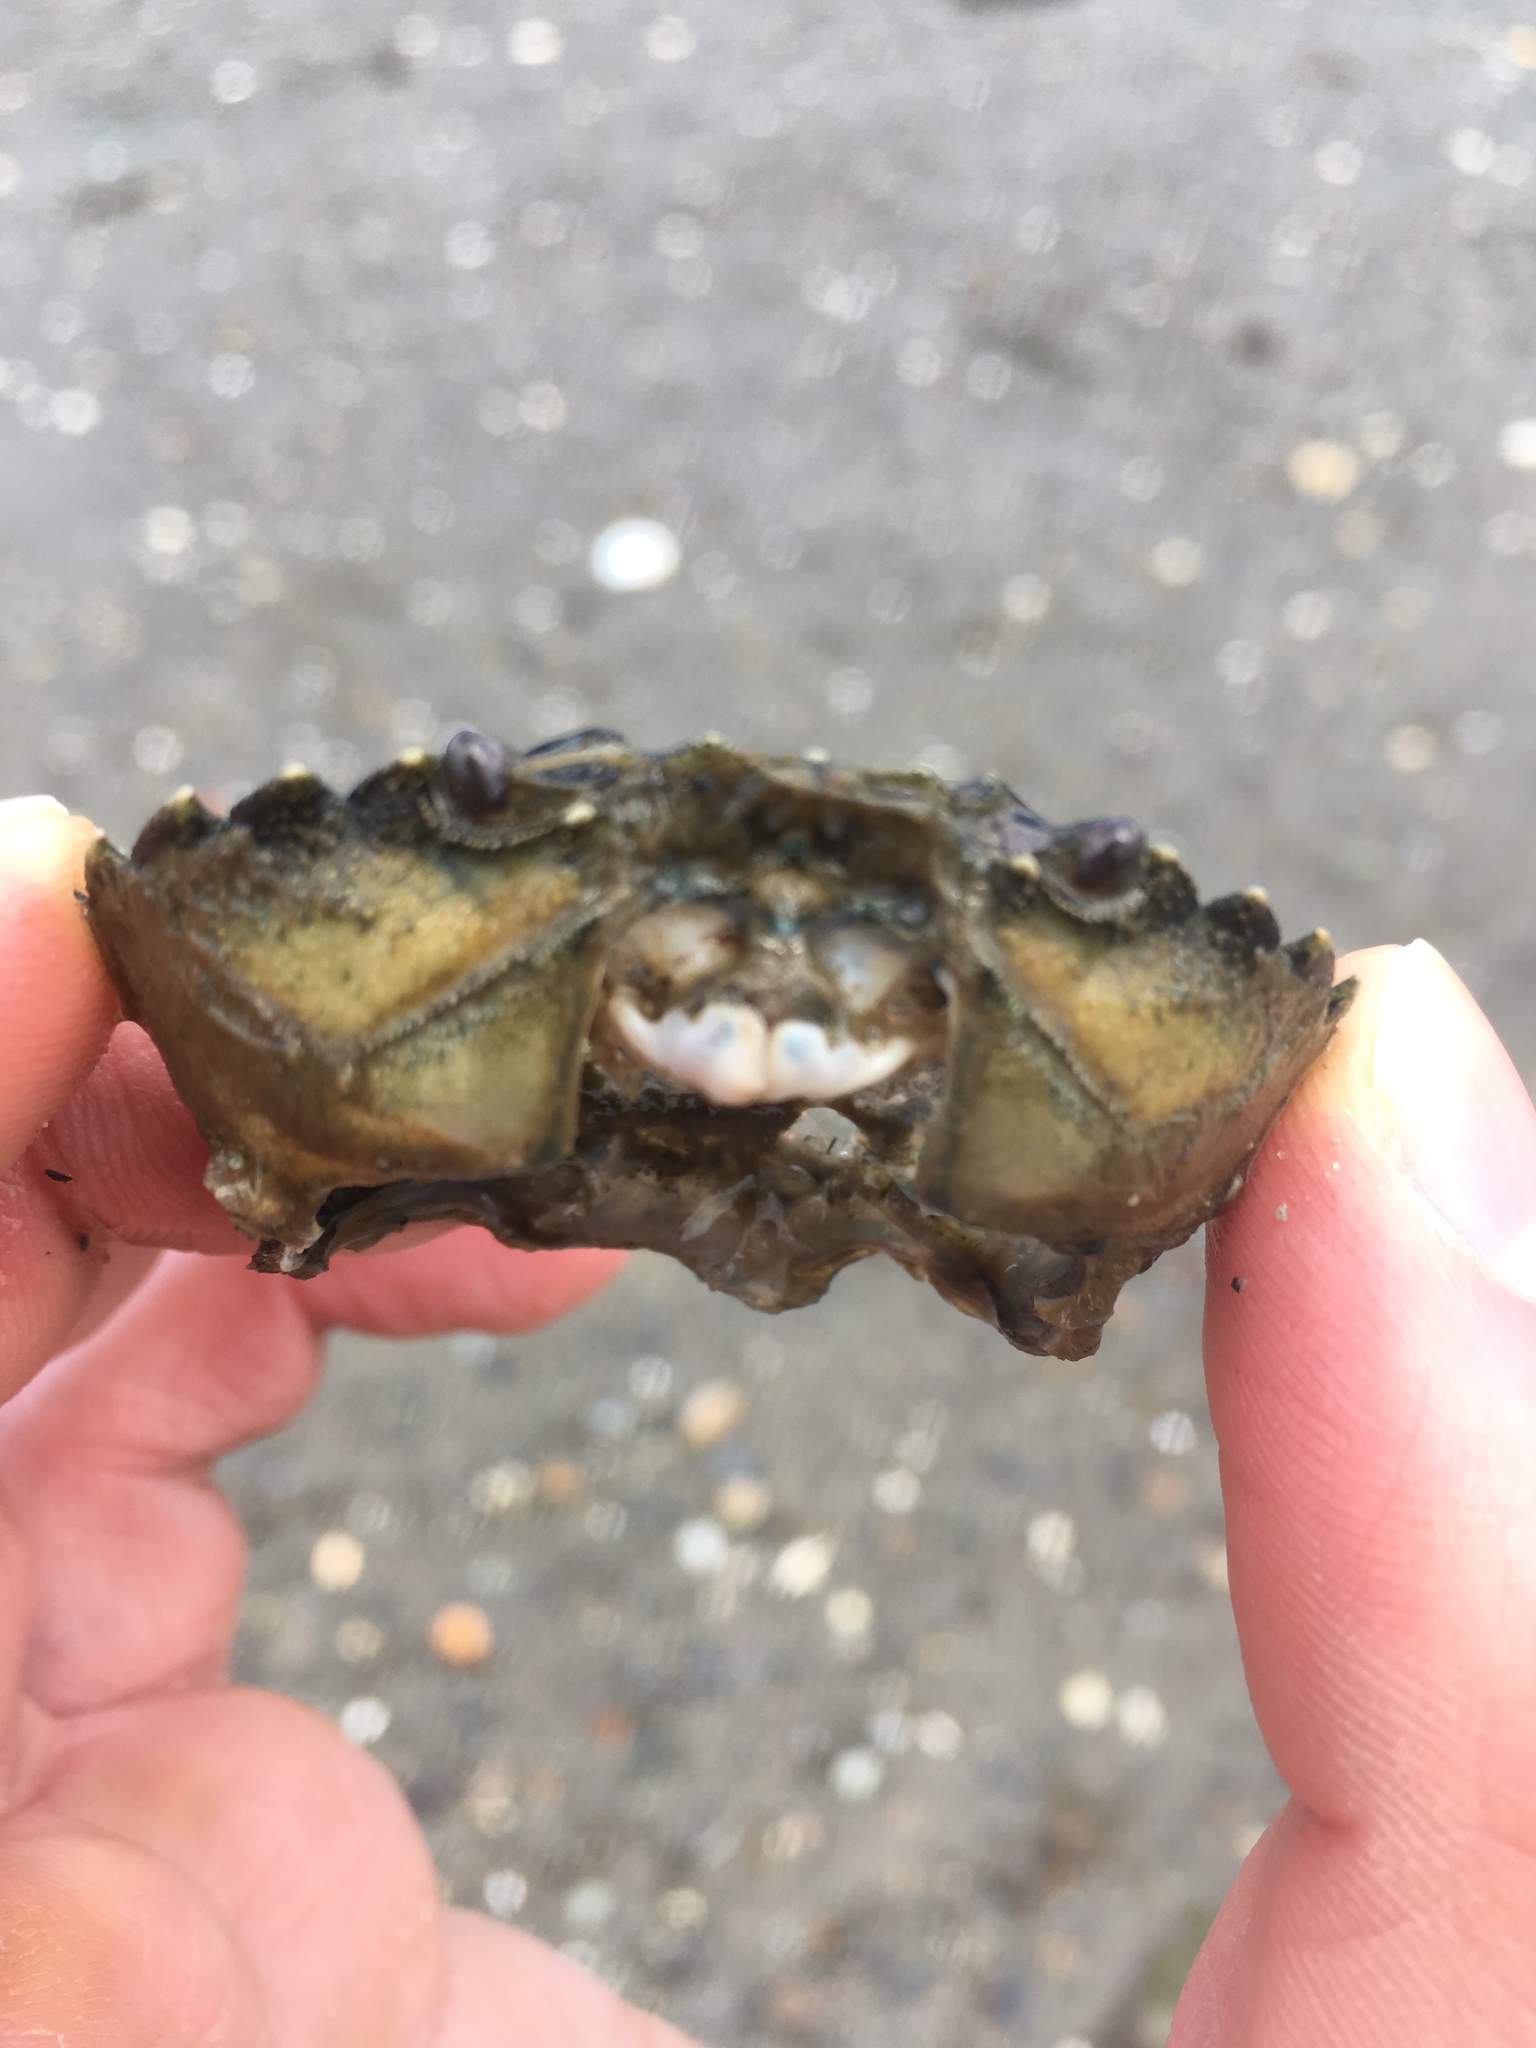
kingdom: Animalia
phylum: Arthropoda
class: Malacostraca
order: Decapoda
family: Carcinidae
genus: Carcinus
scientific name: Carcinus maenas
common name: European green crab
